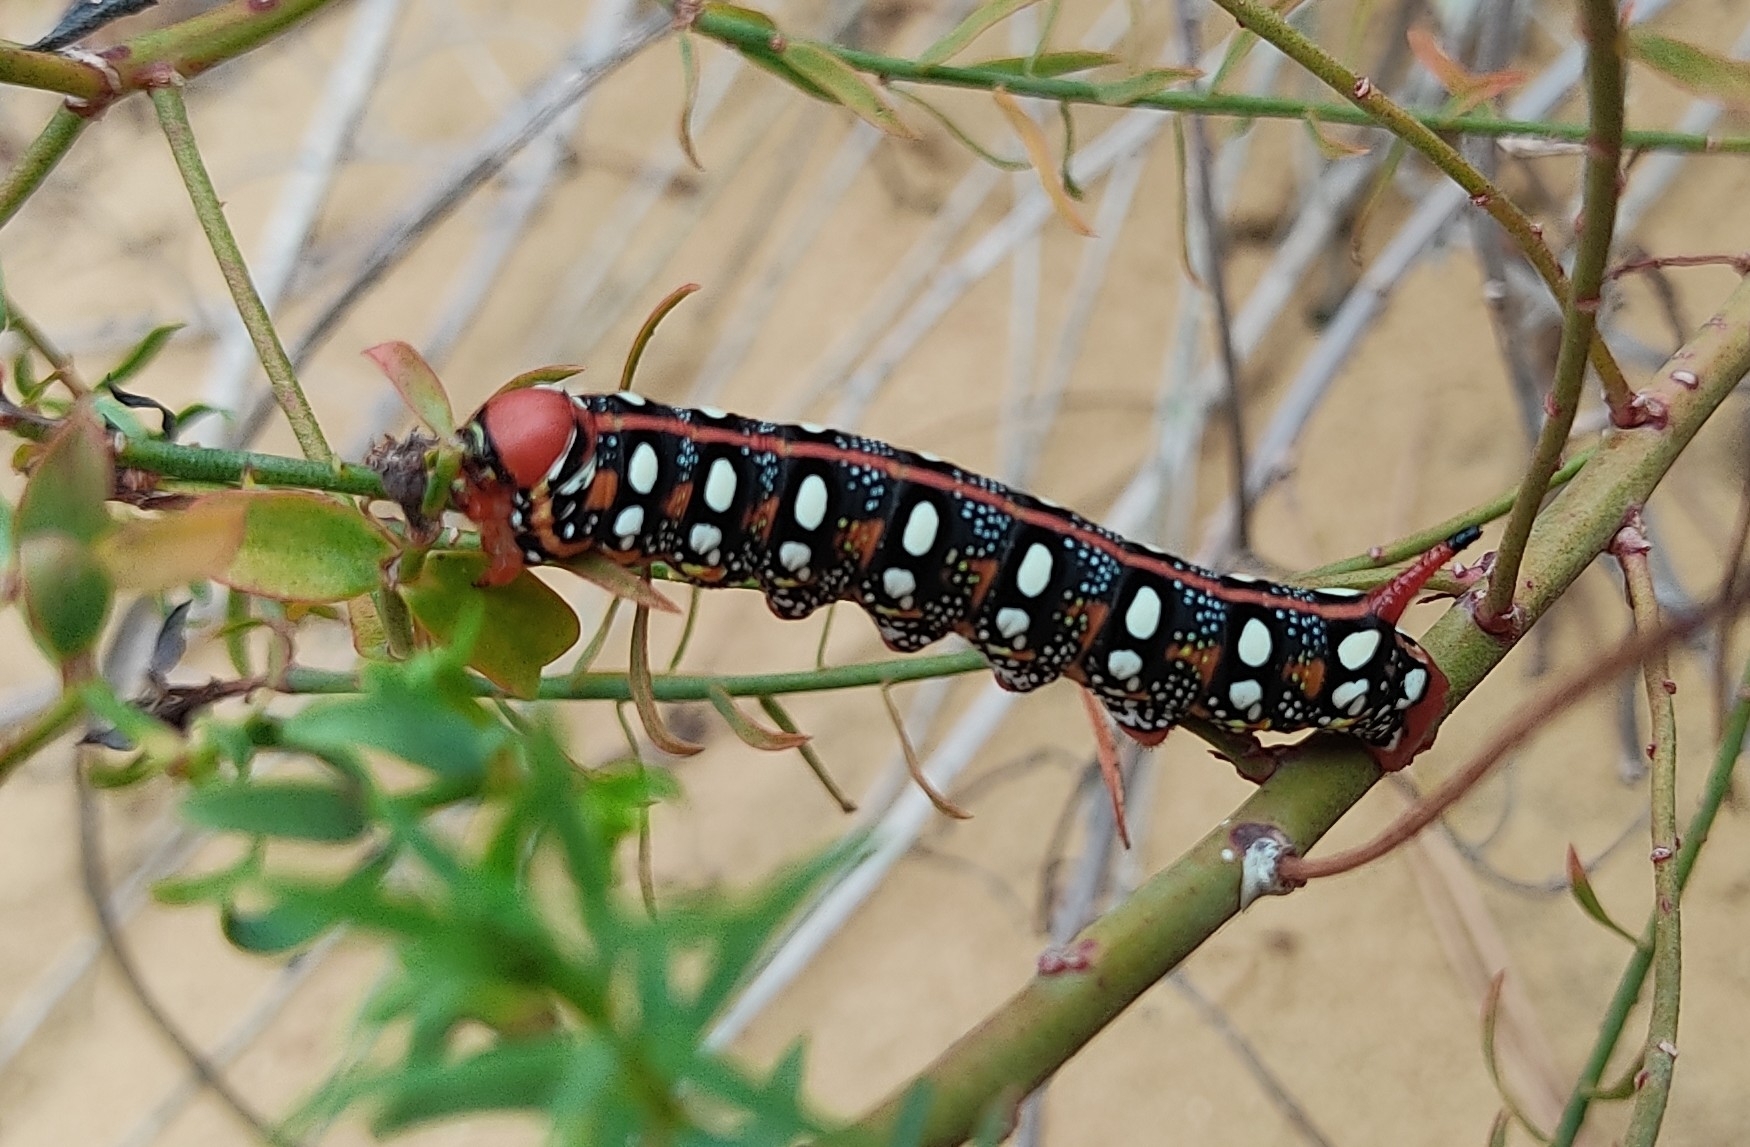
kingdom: Animalia
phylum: Arthropoda
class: Insecta
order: Lepidoptera
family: Sphingidae
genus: Hyles
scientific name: Hyles euphorbiae
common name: Spurge hawk-moth
